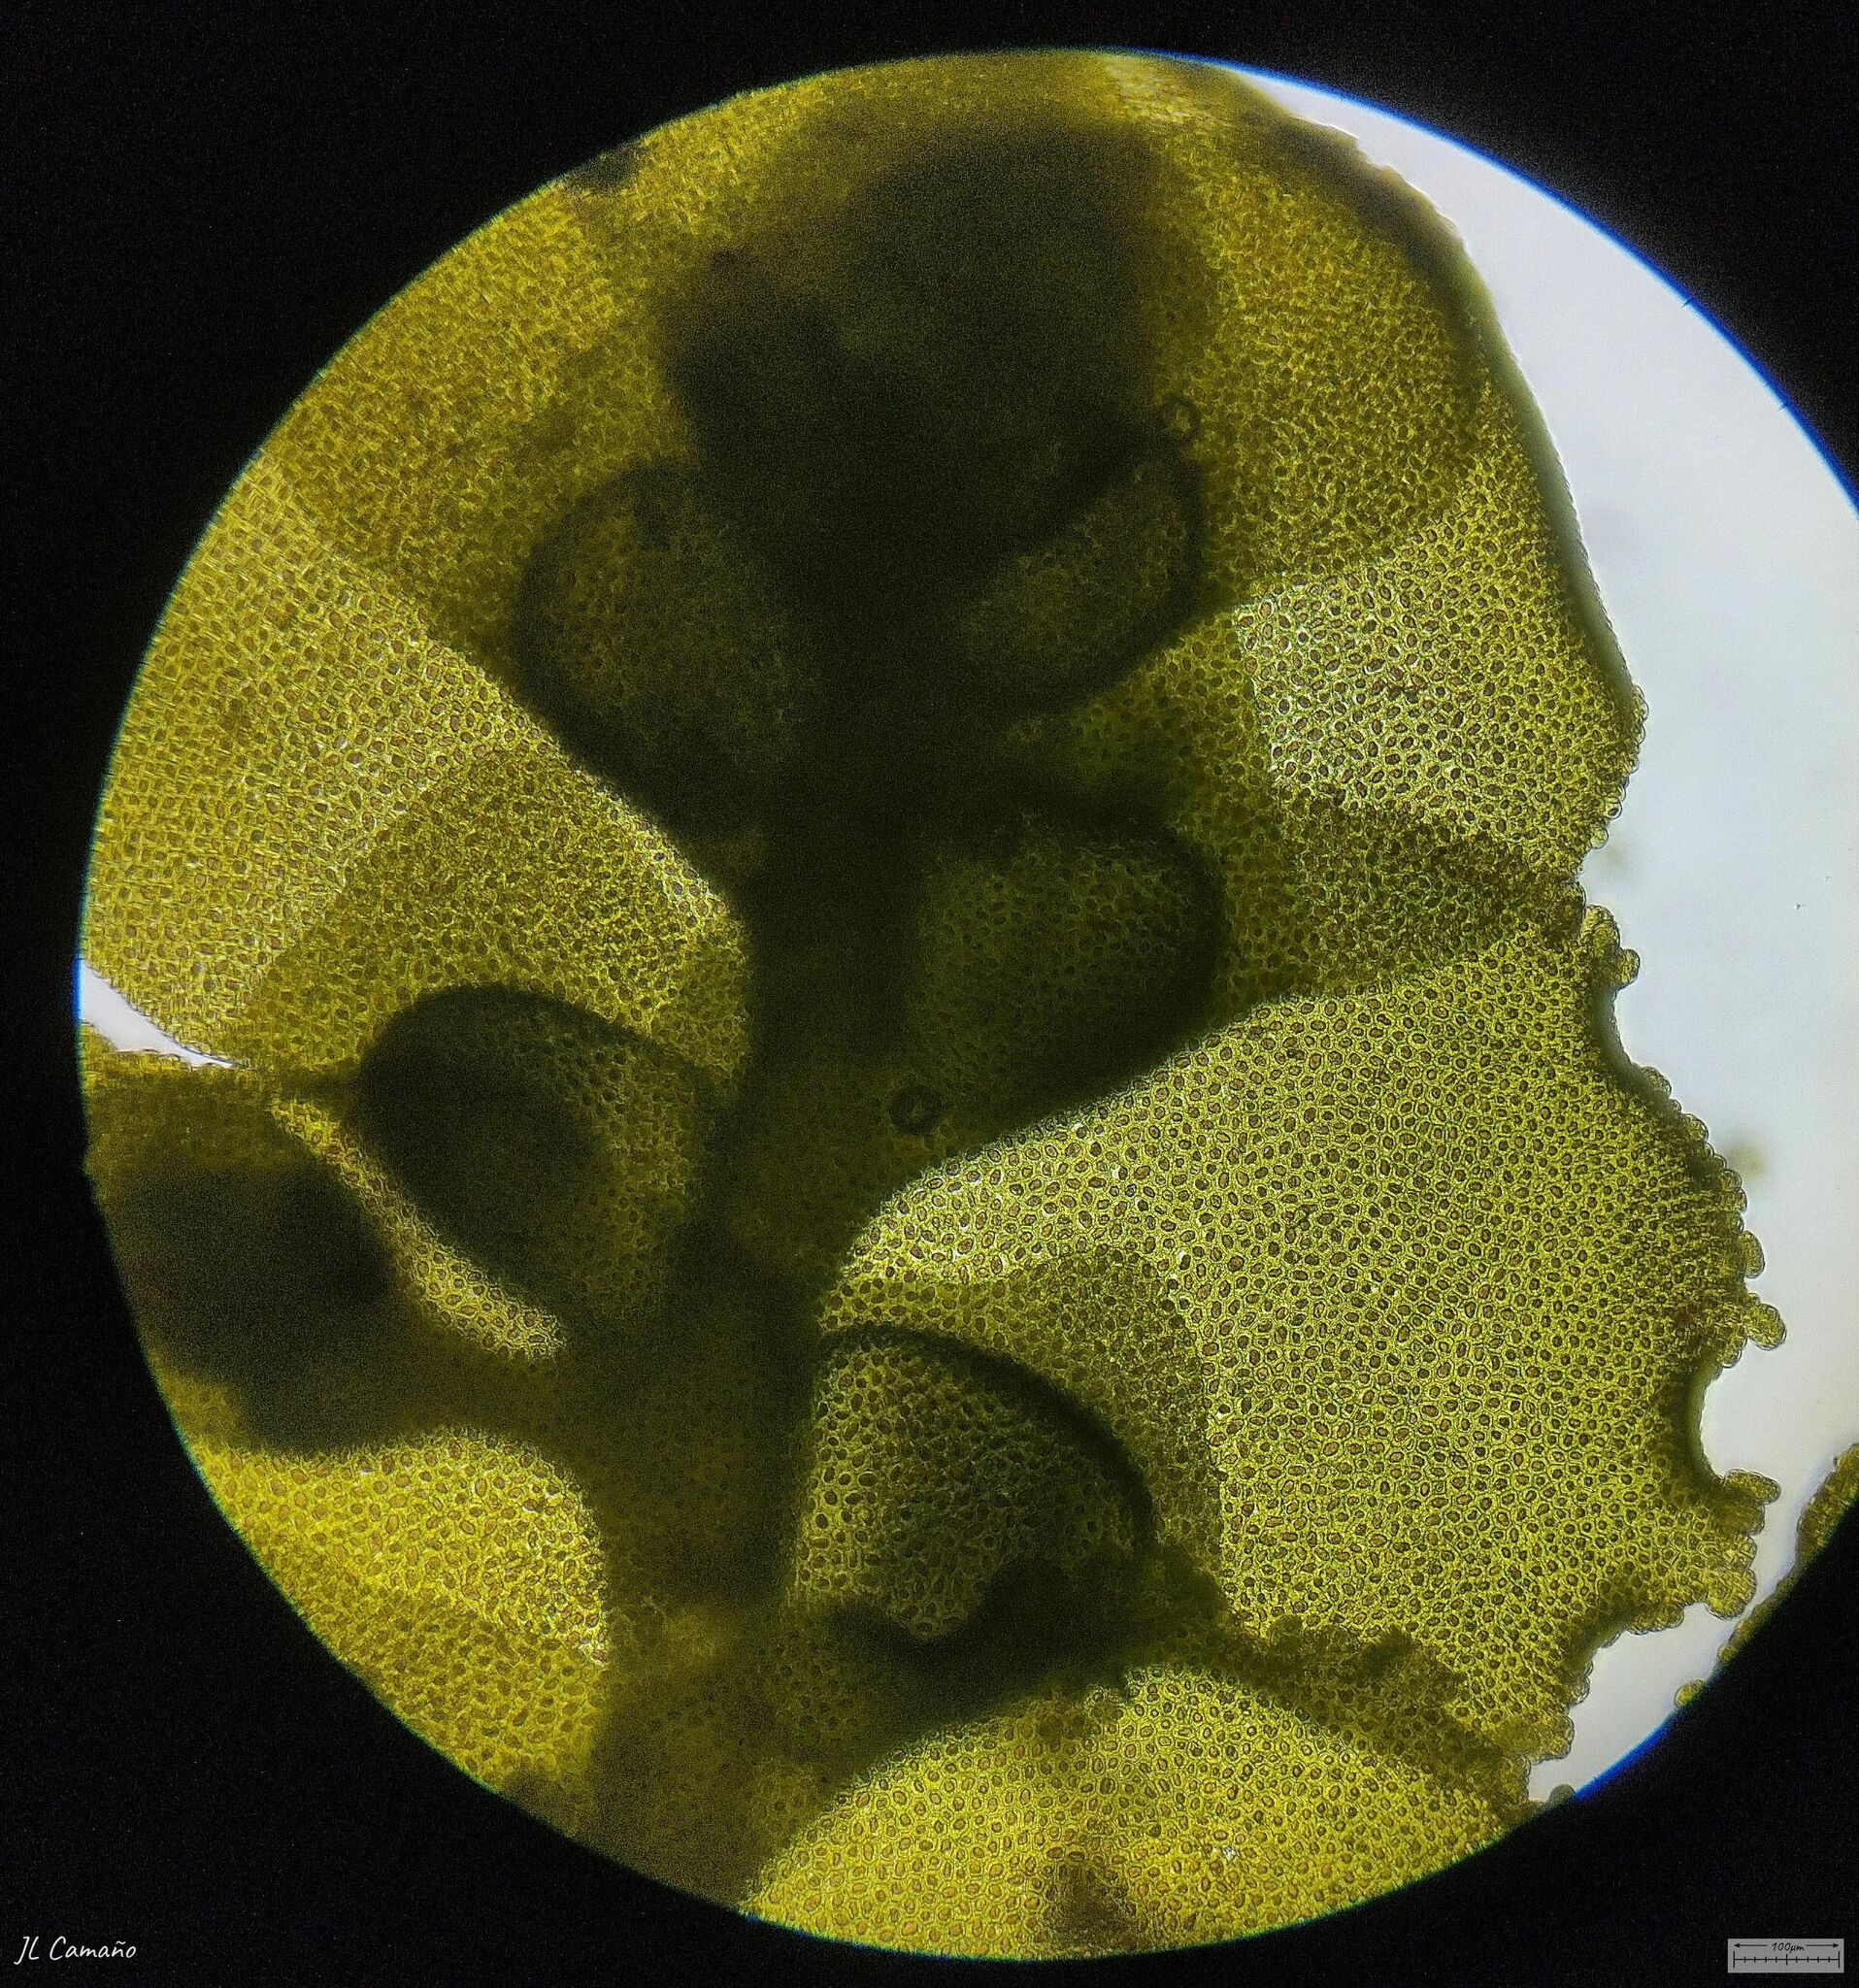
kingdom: Plantae
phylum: Marchantiophyta
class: Jungermanniopsida
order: Porellales
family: Radulaceae
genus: Radula
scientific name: Radula complanata
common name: Flat-leaved scalewort
